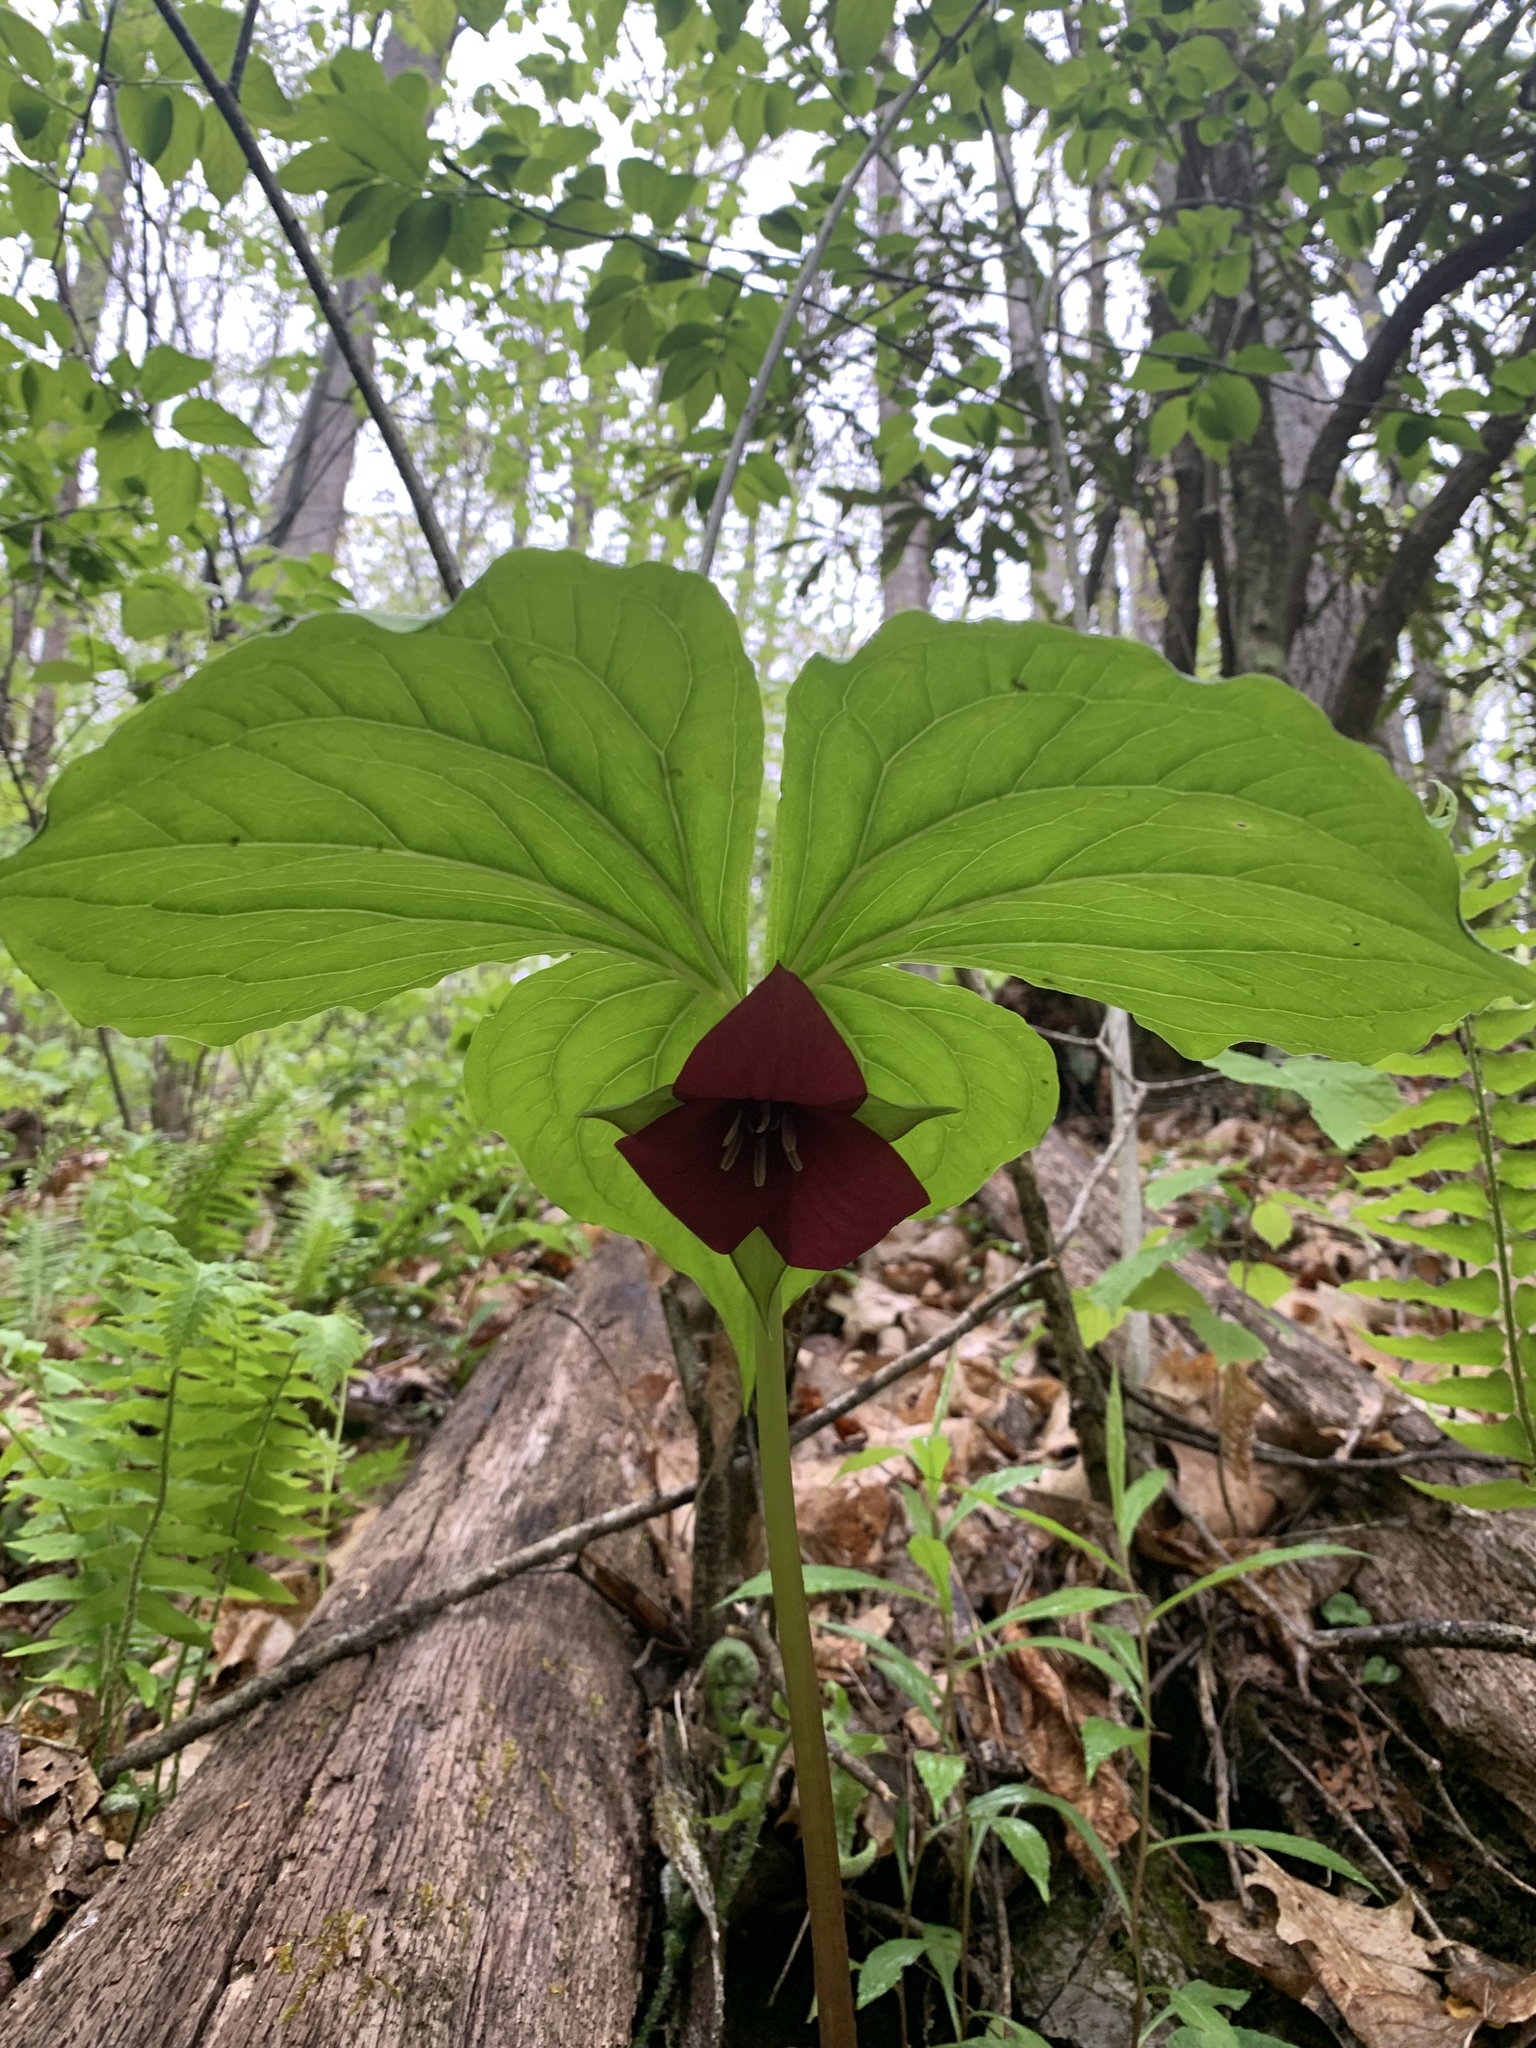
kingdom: Plantae
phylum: Tracheophyta
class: Liliopsida
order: Liliales
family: Melanthiaceae
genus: Trillium
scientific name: Trillium vaseyi
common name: Sweet trillium
